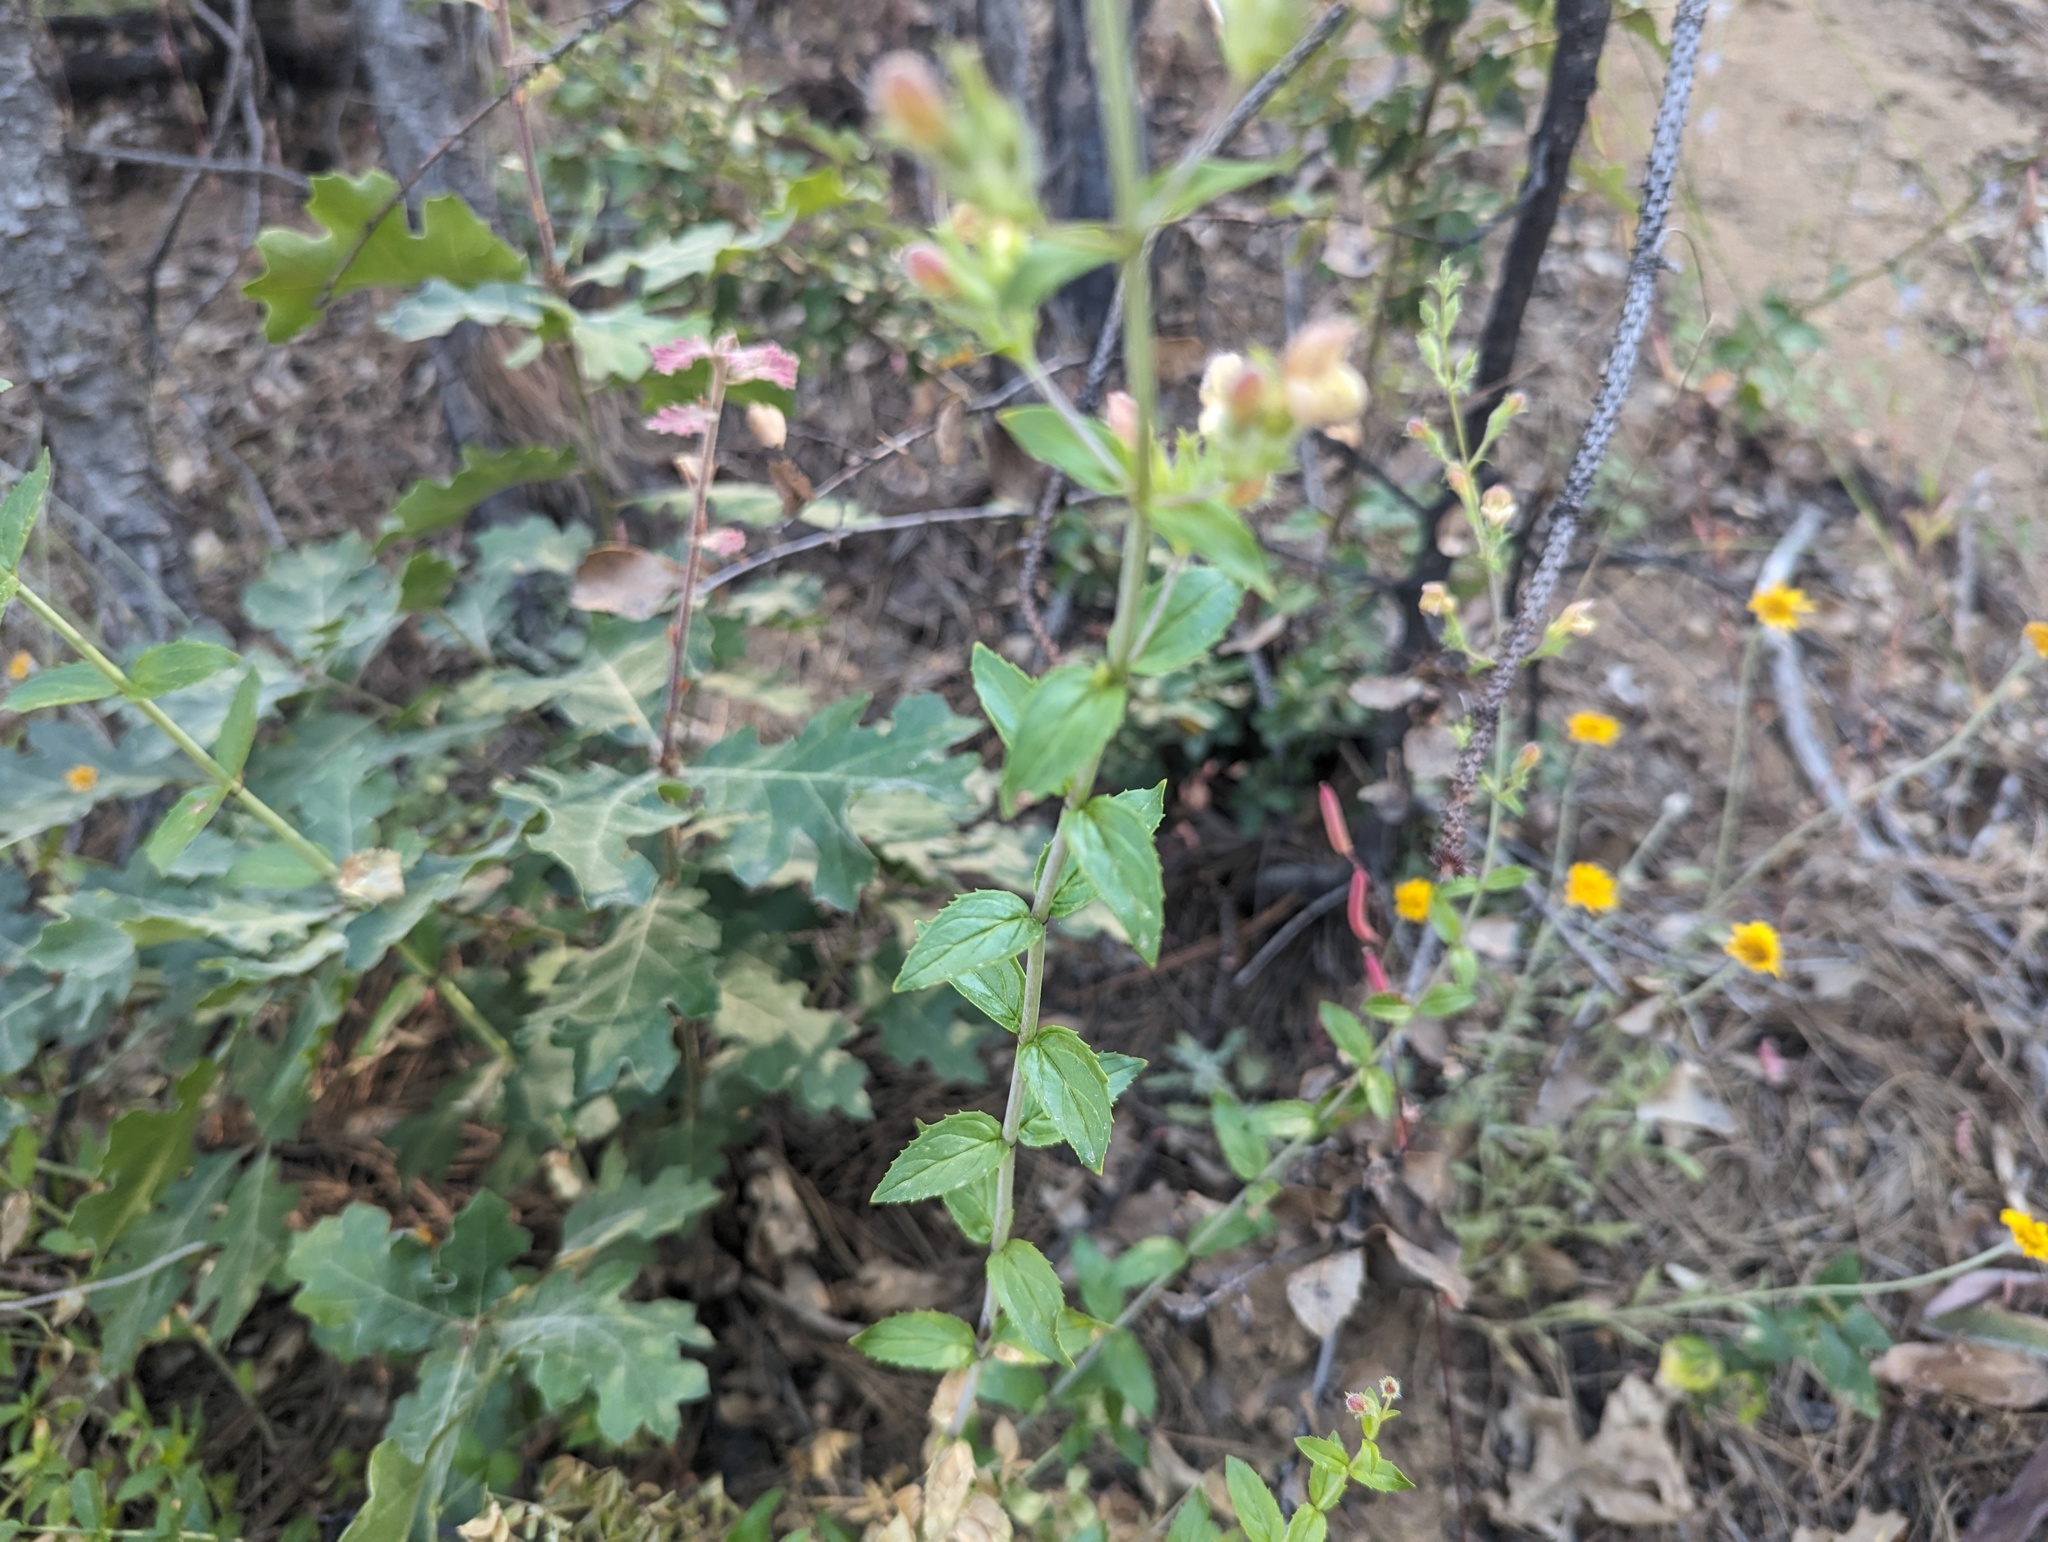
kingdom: Plantae
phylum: Tracheophyta
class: Magnoliopsida
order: Lamiales
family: Plantaginaceae
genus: Keckiella
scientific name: Keckiella lemmonii
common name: Lemmon's keckiella
